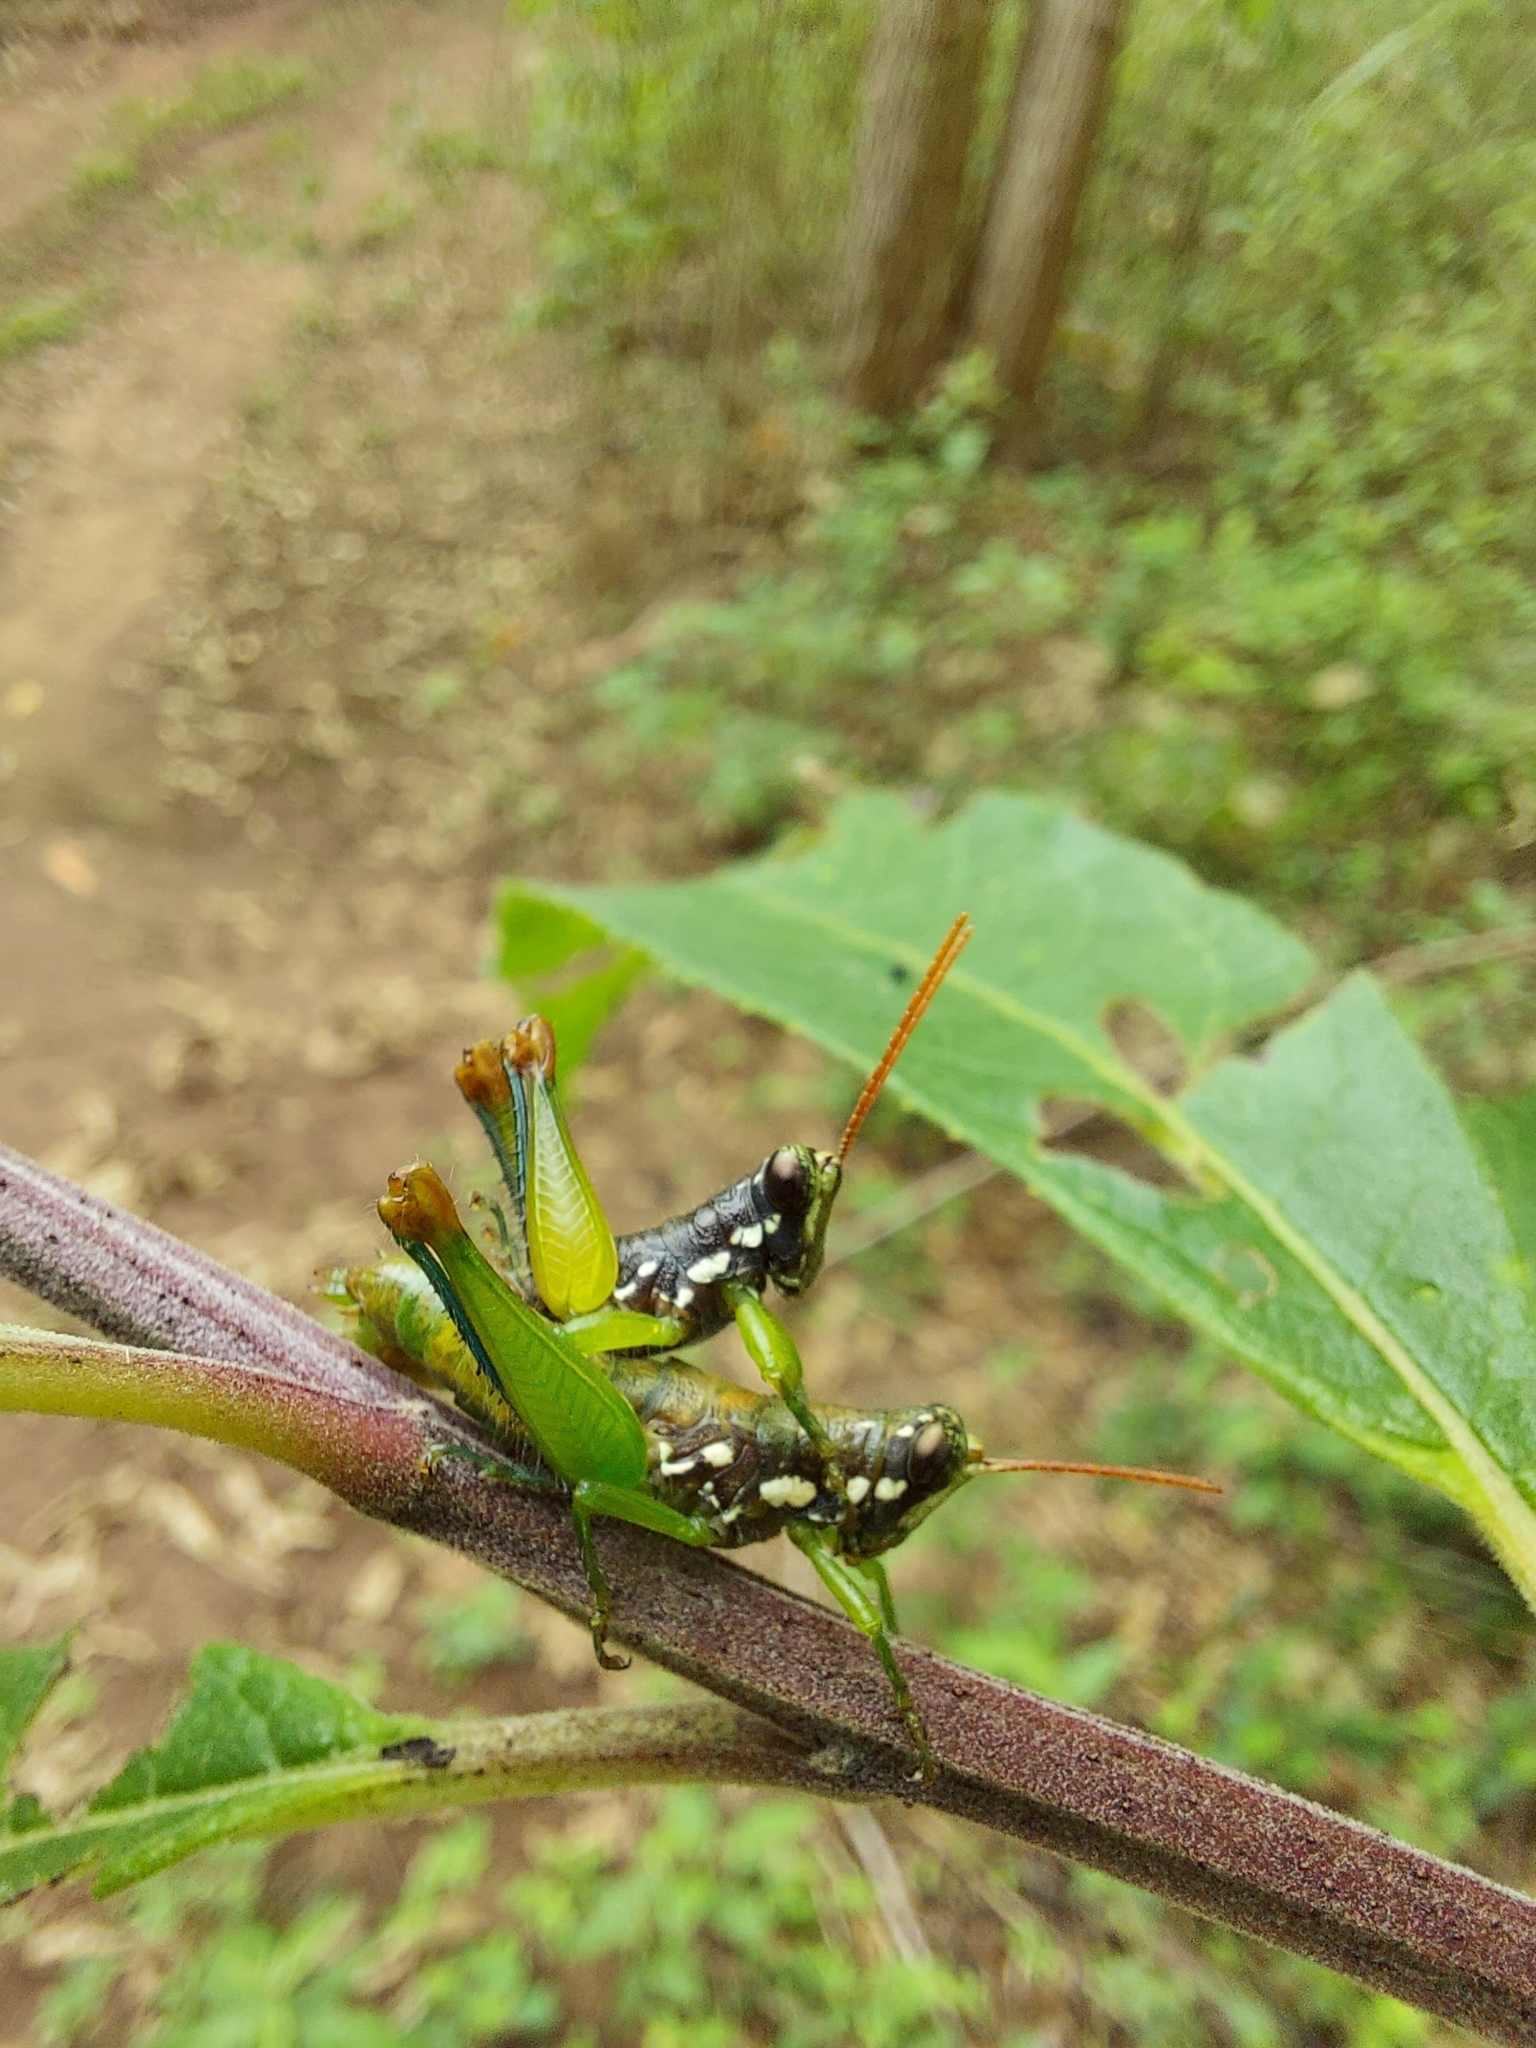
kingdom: Animalia
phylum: Arthropoda
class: Insecta
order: Orthoptera
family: Acrididae
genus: Sitalces
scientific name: Sitalces volxemi
